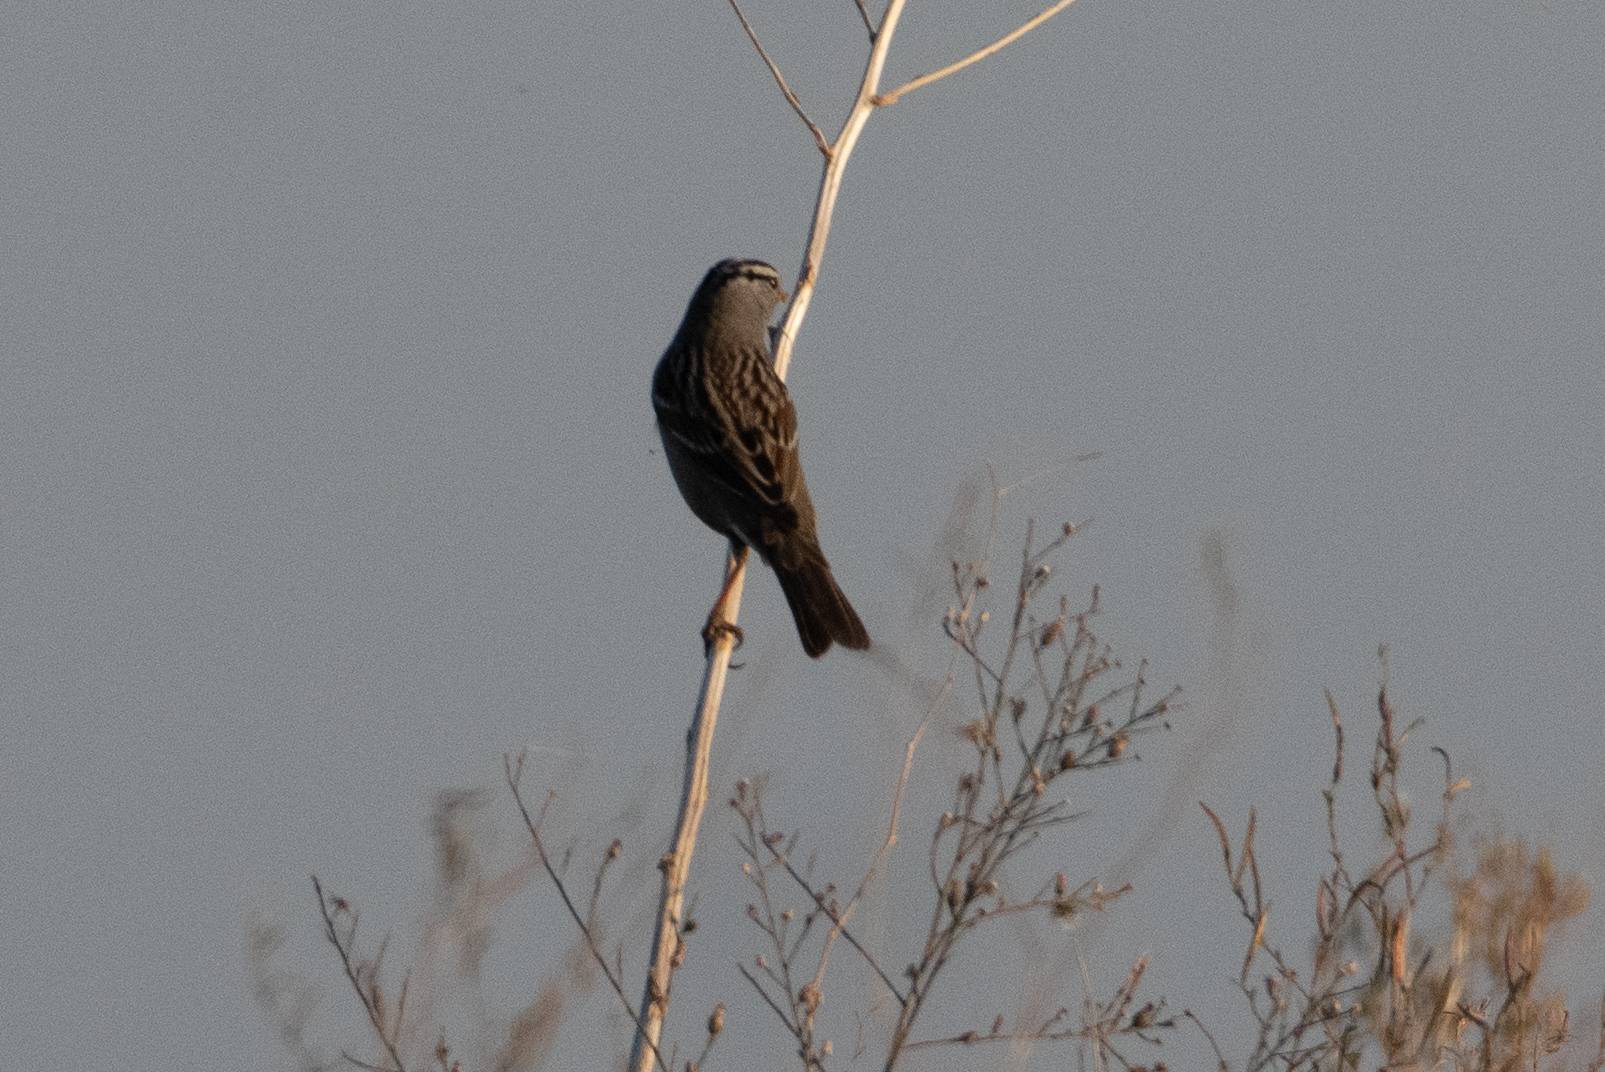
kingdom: Animalia
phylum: Chordata
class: Aves
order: Passeriformes
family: Passerellidae
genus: Zonotrichia
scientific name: Zonotrichia leucophrys
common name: White-crowned sparrow
